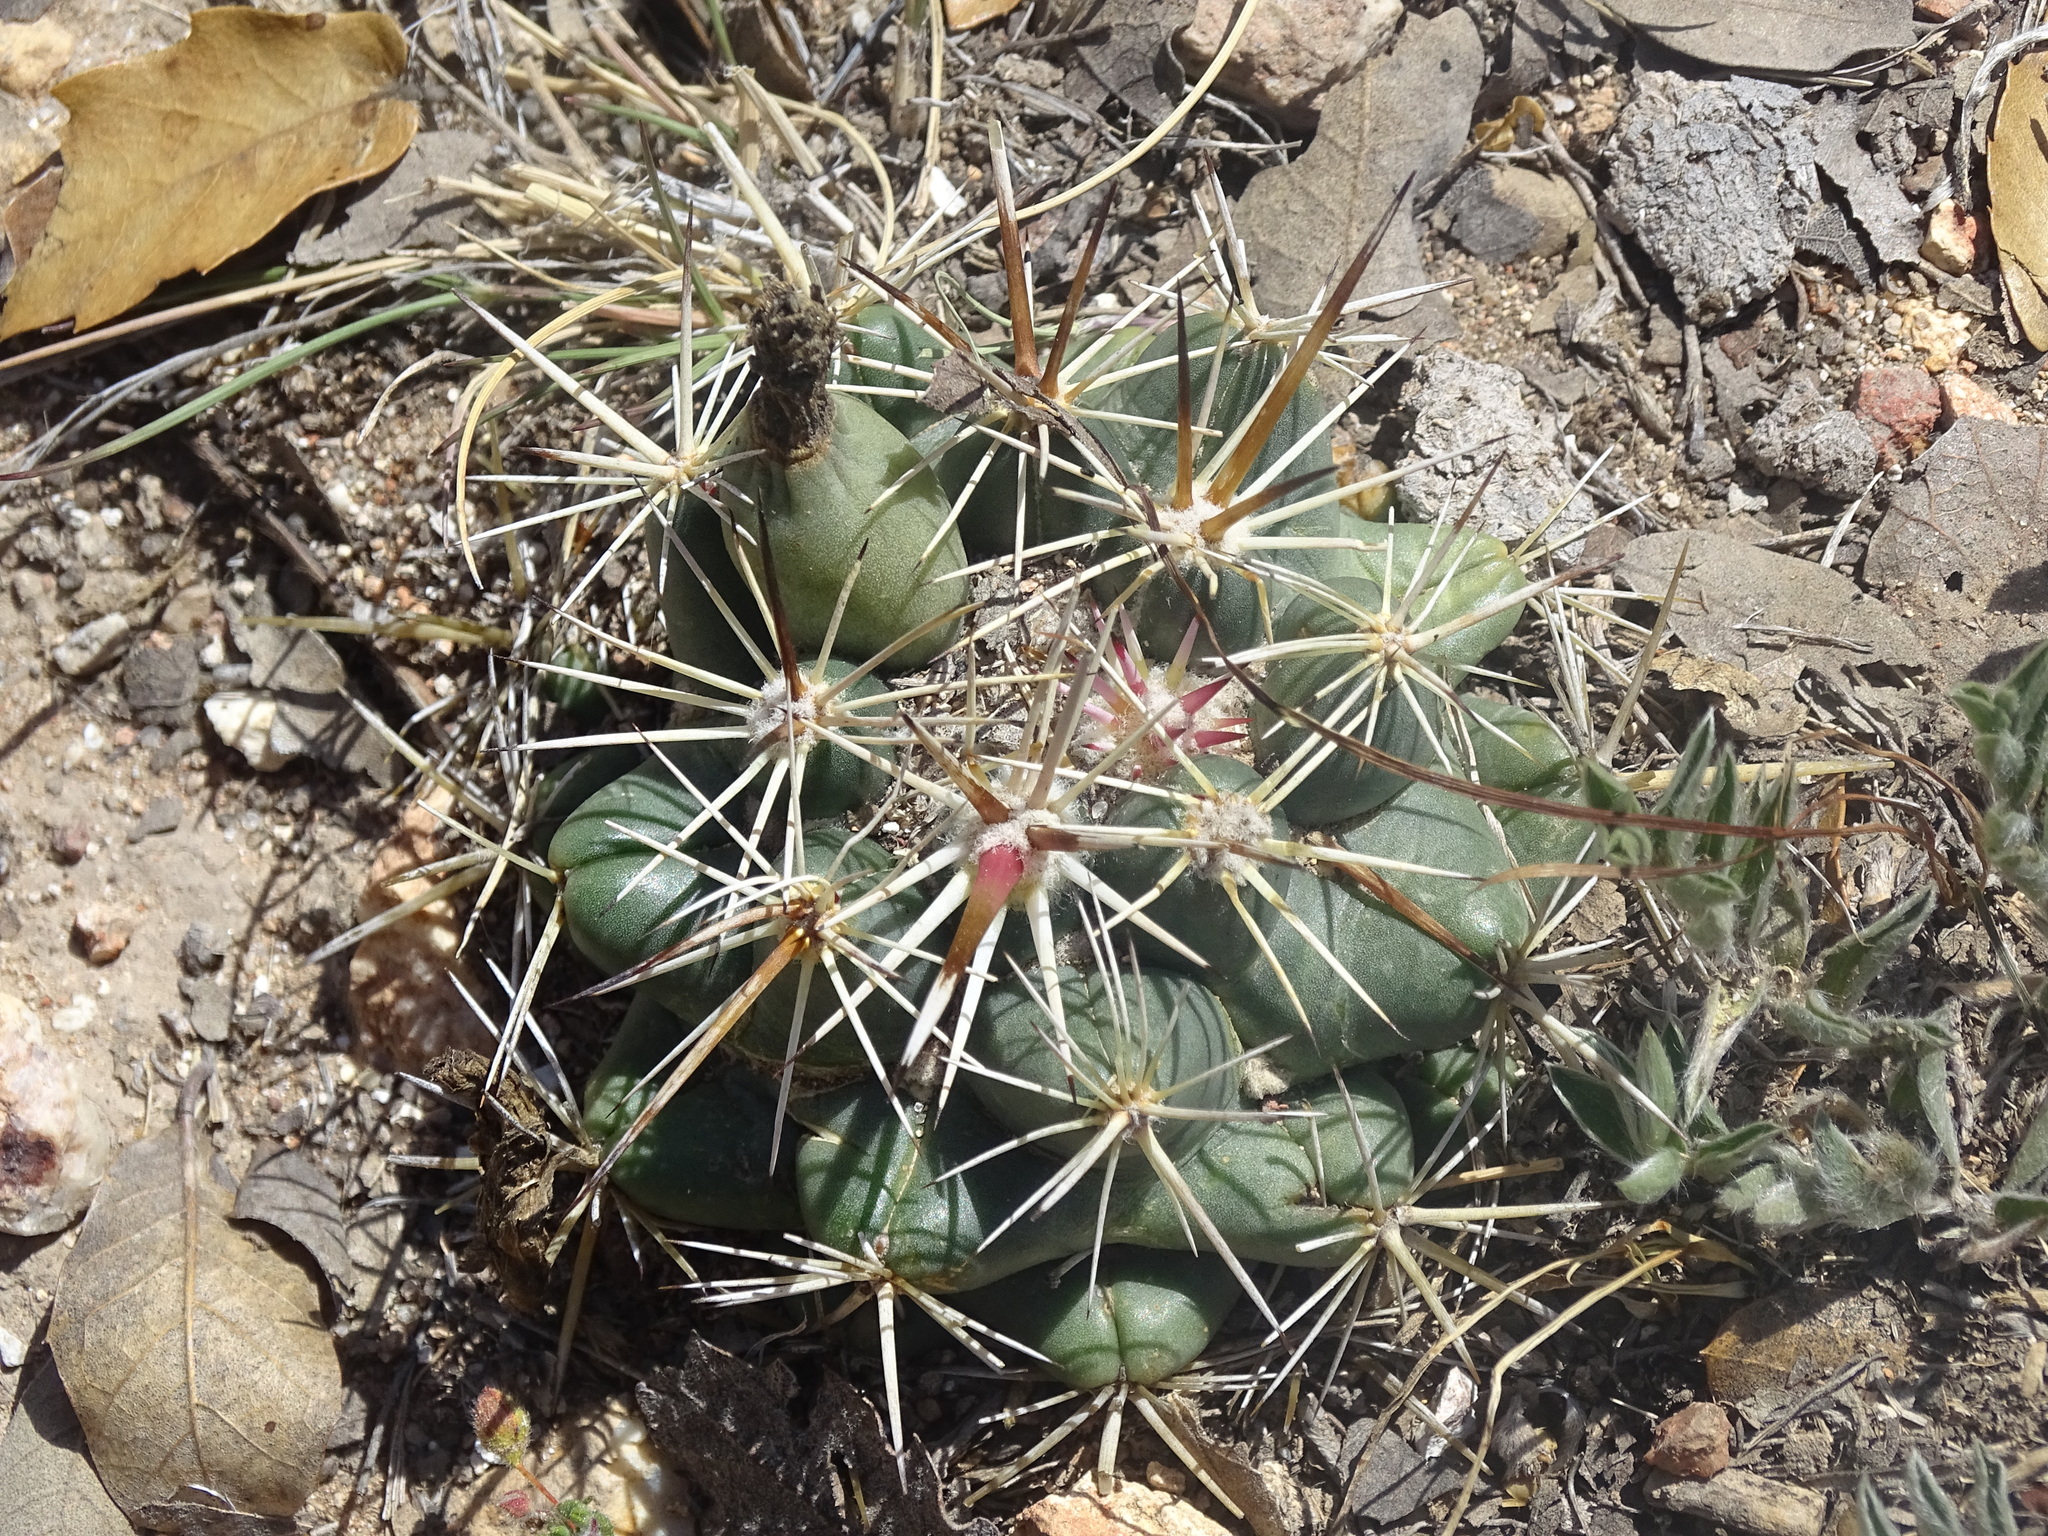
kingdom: Plantae
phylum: Tracheophyta
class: Magnoliopsida
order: Caryophyllales
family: Cactaceae
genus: Coryphantha
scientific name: Coryphantha ottonis
